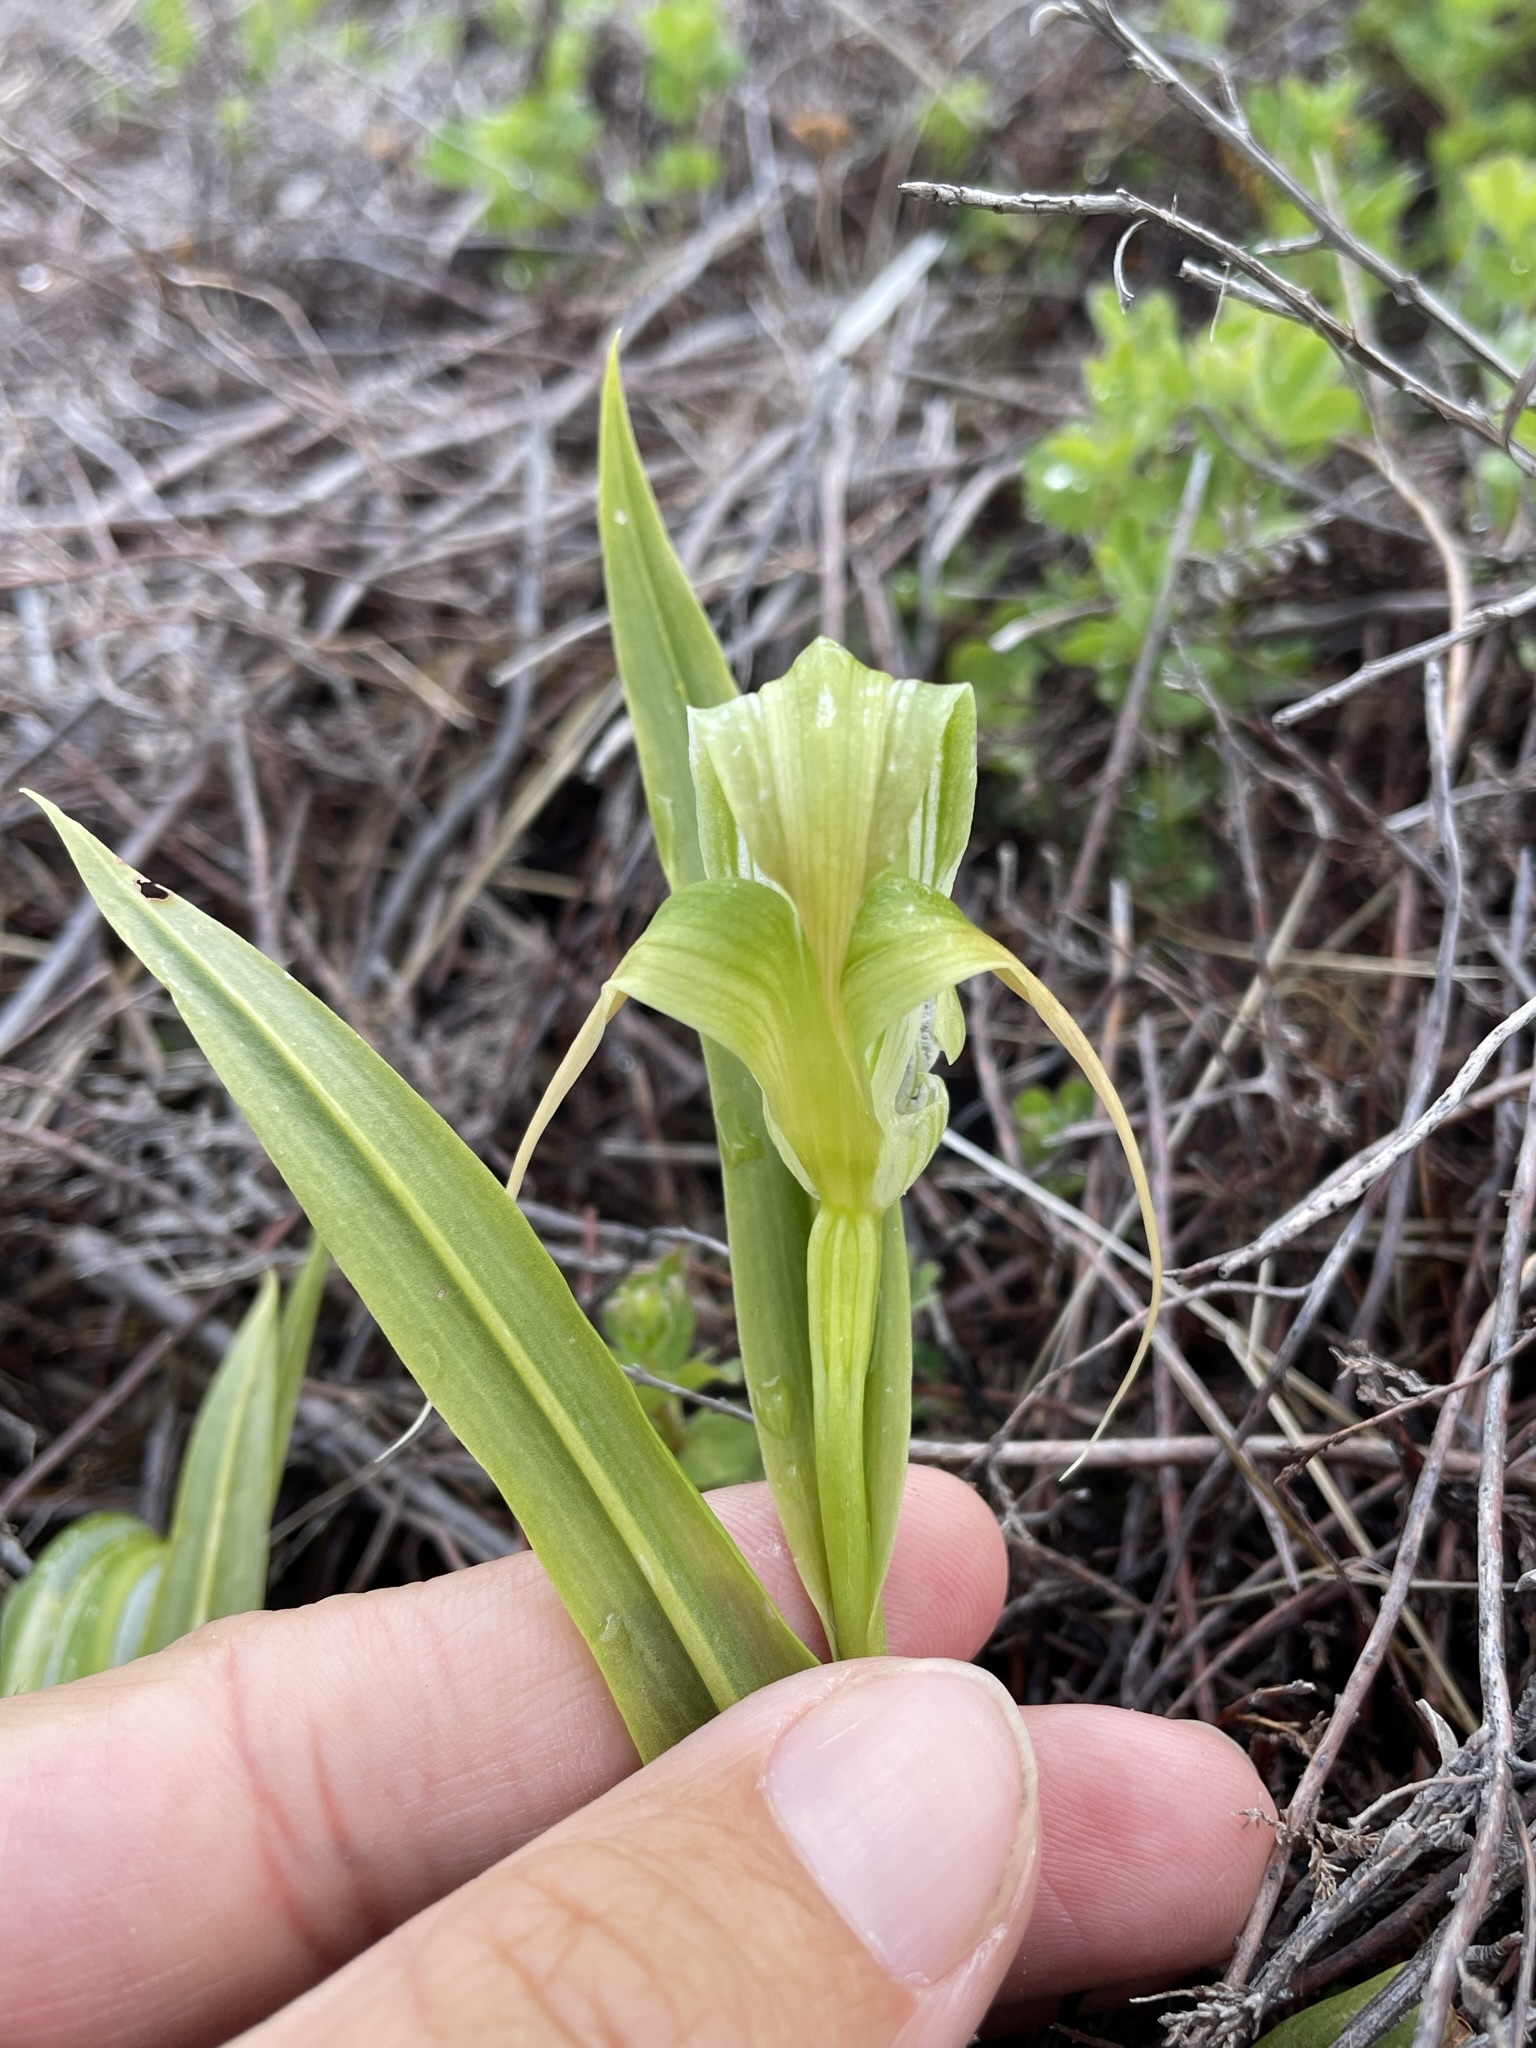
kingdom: Plantae
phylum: Tracheophyta
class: Liliopsida
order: Asparagales
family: Orchidaceae
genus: Pterostylis
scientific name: Pterostylis patens
